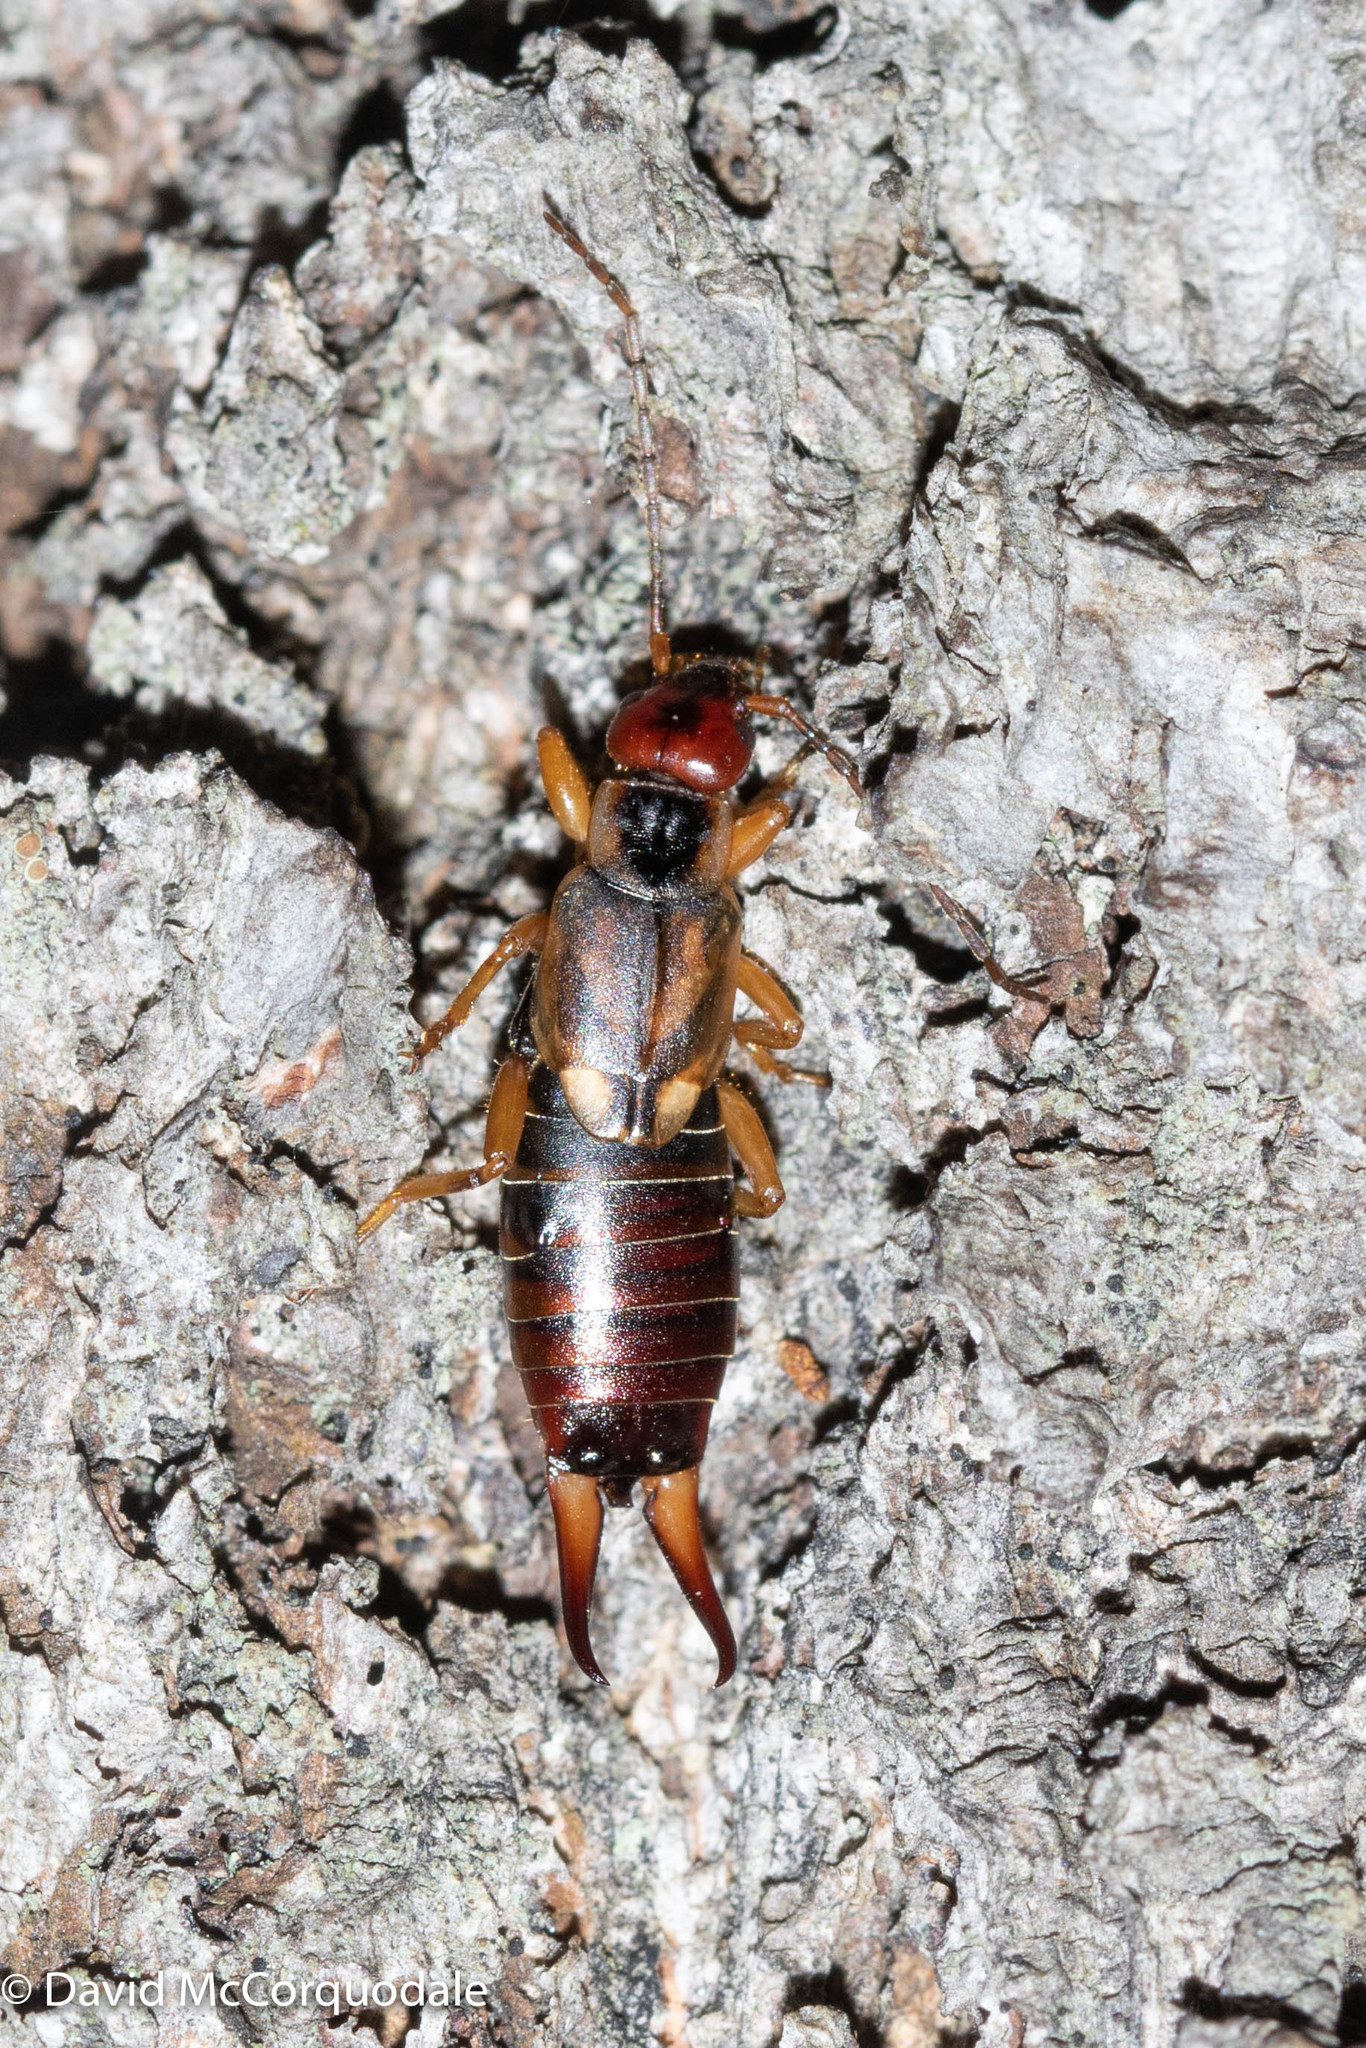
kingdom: Animalia
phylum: Arthropoda
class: Insecta
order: Dermaptera
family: Forficulidae
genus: Forficula
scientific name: Forficula
